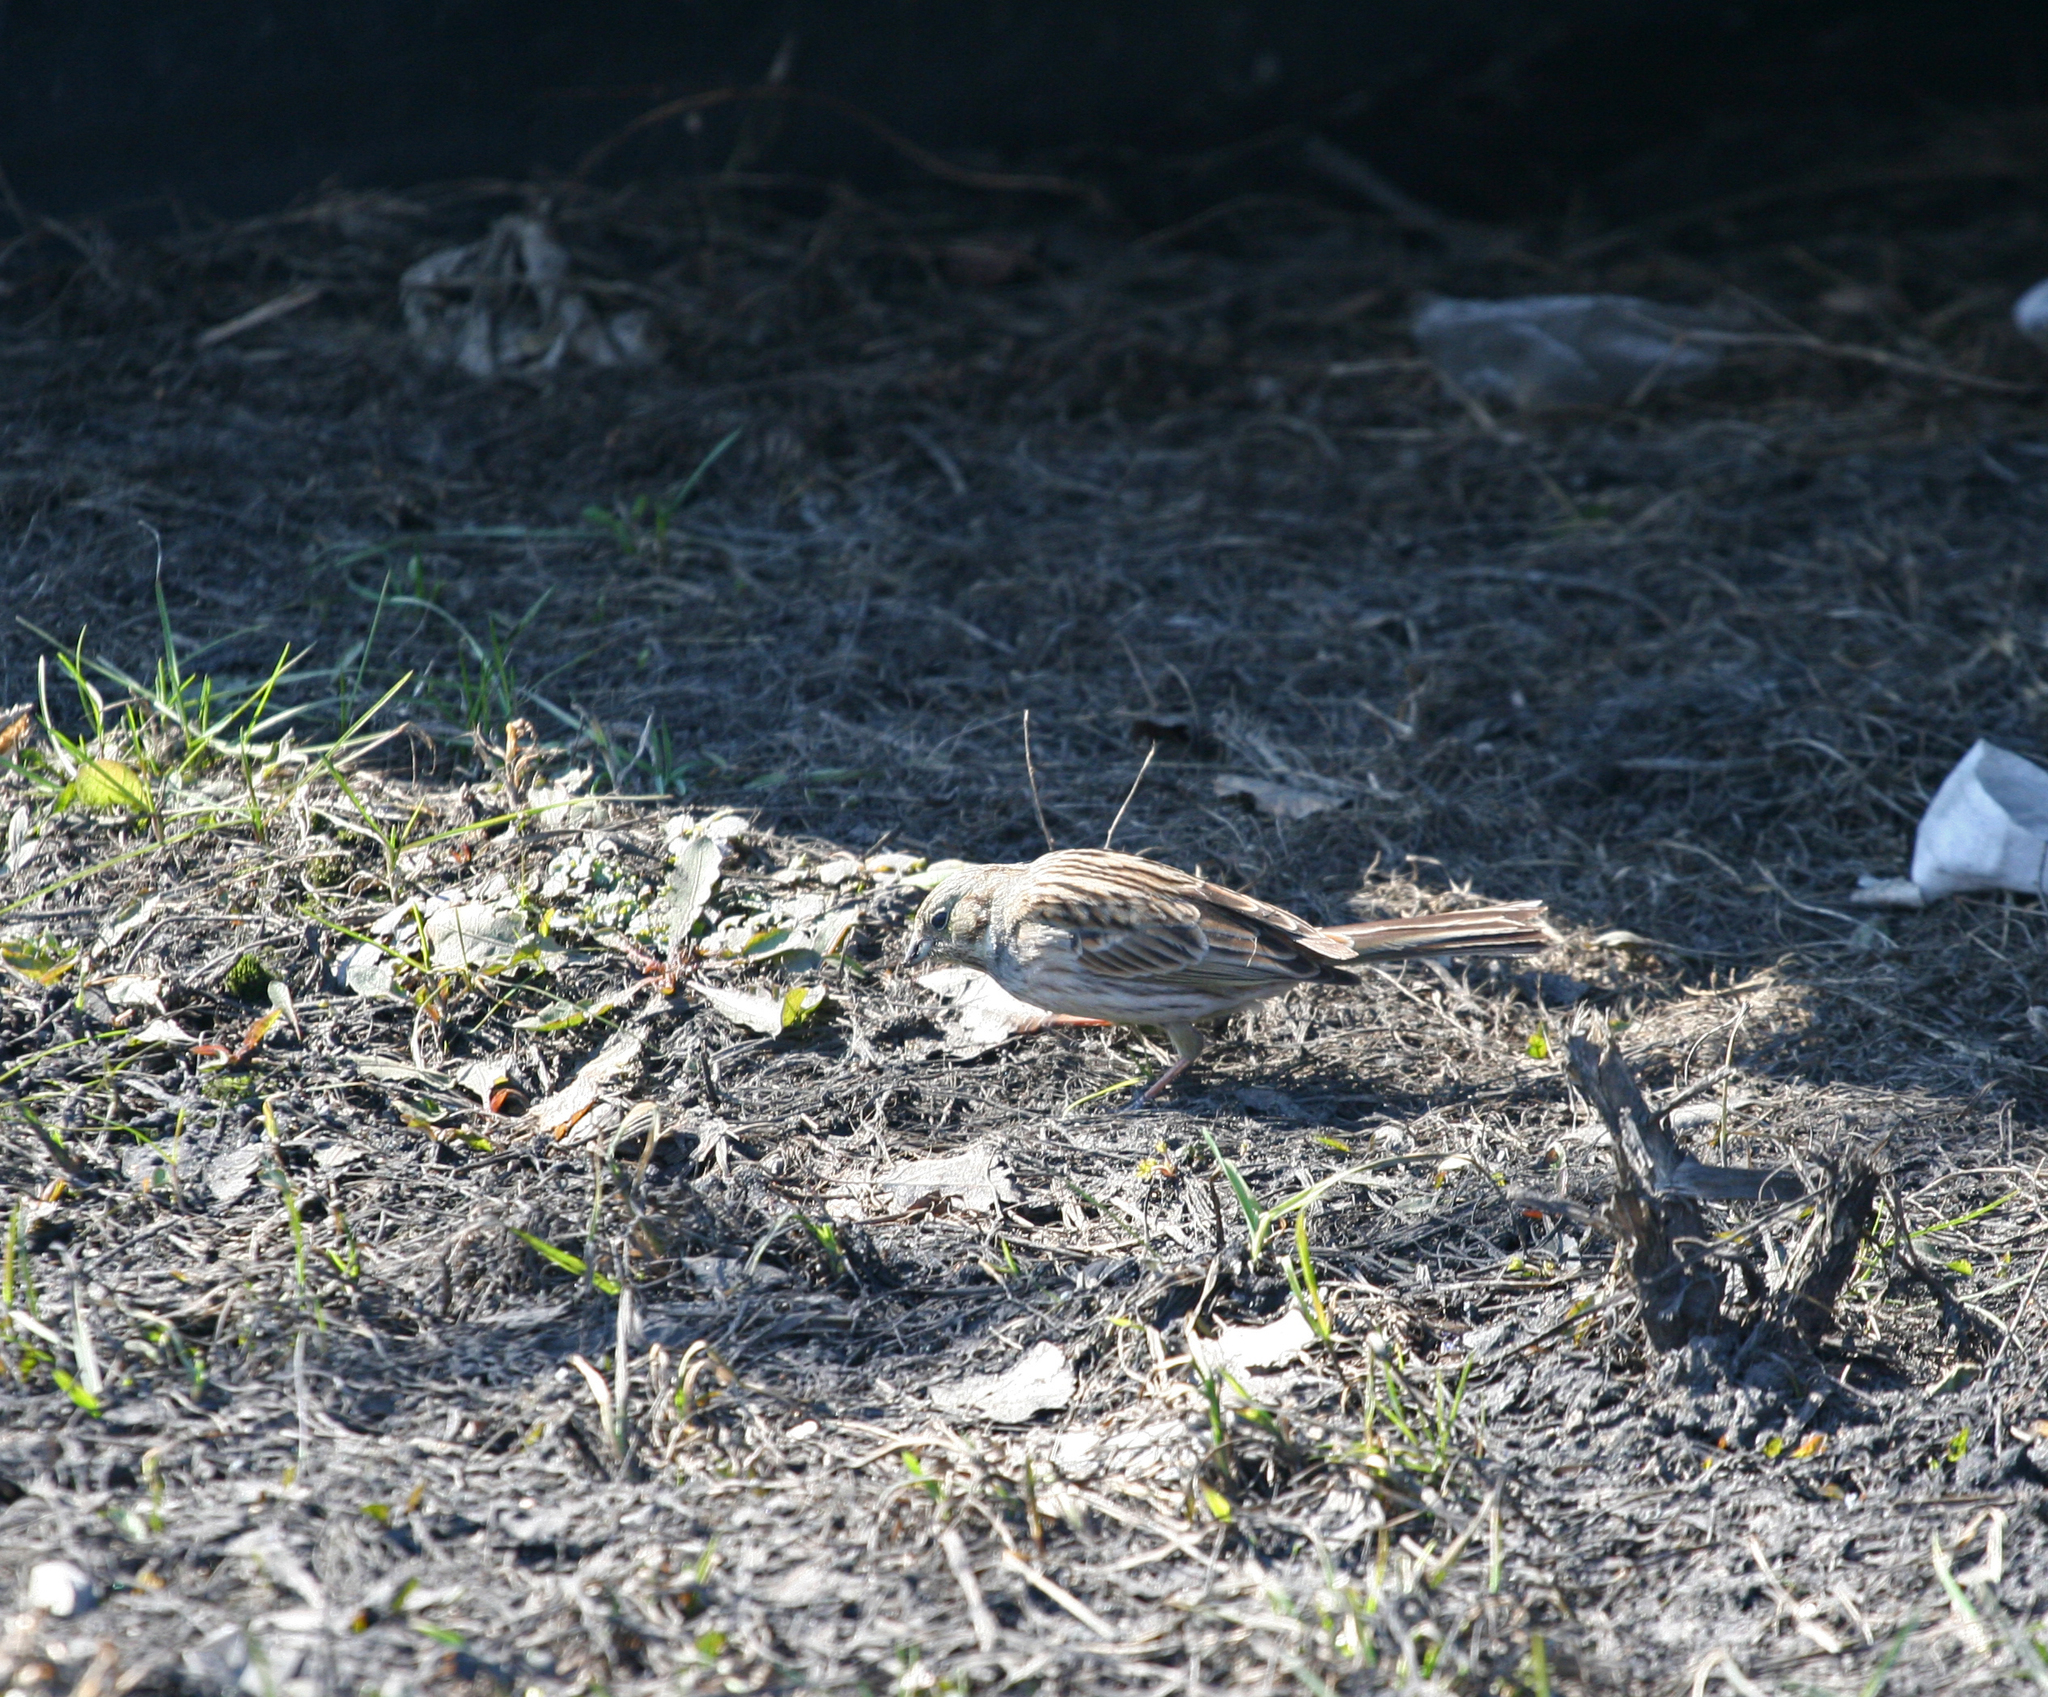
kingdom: Animalia
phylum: Chordata
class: Aves
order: Passeriformes
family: Emberizidae
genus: Emberiza
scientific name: Emberiza
